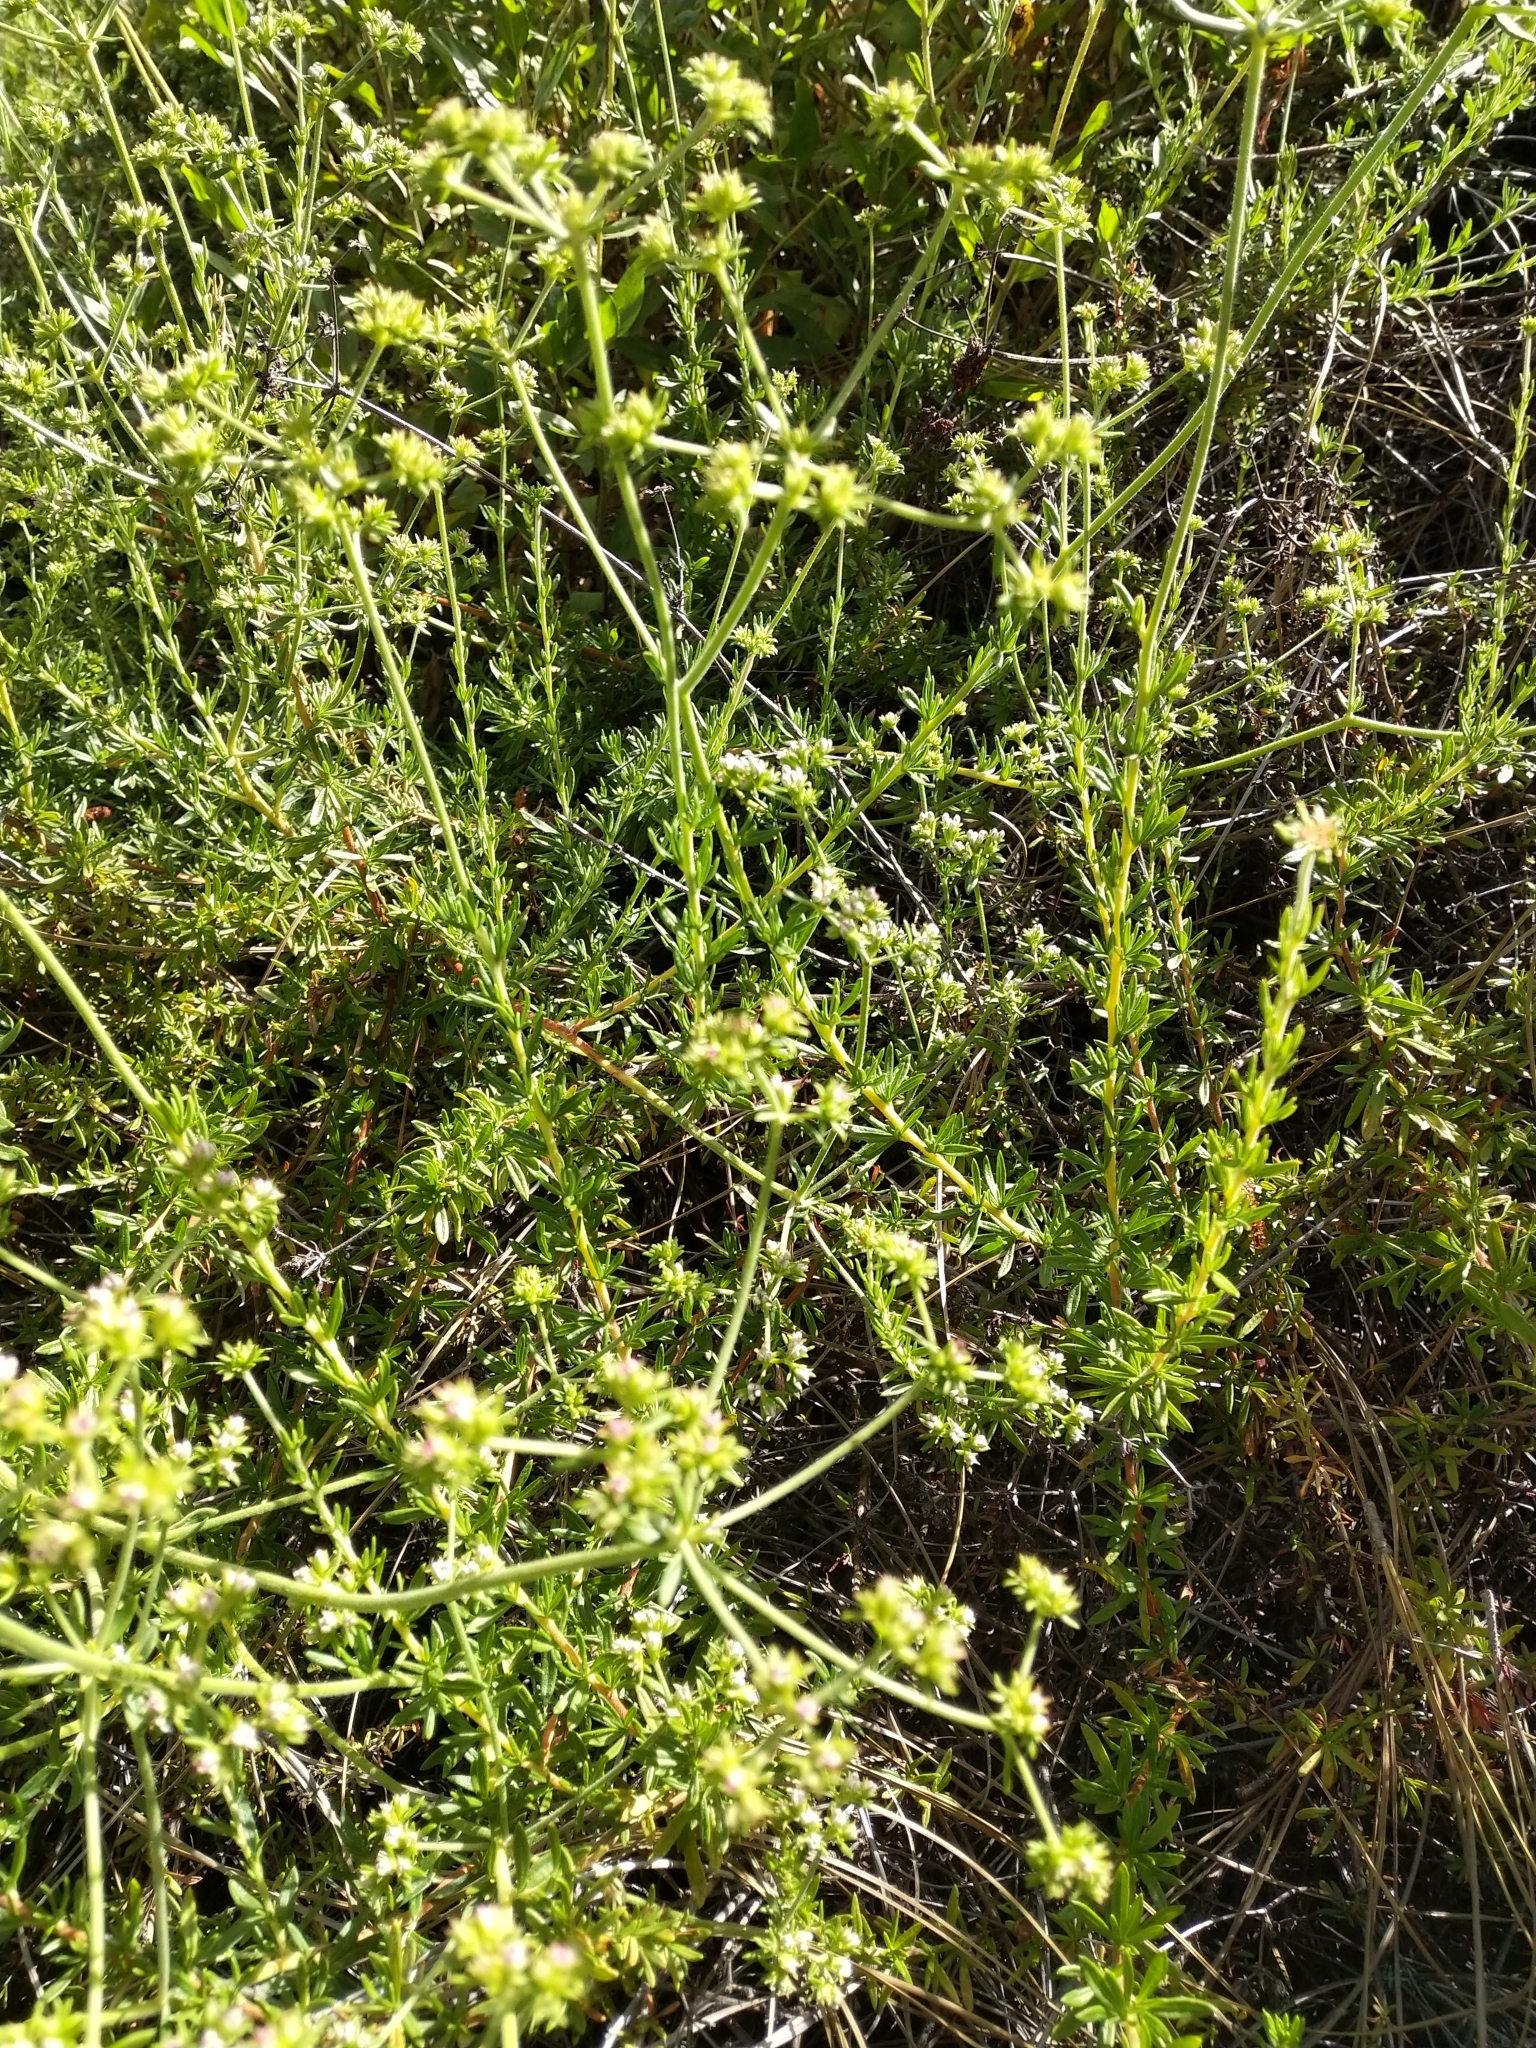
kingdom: Plantae
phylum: Tracheophyta
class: Magnoliopsida
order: Caryophyllales
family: Polygonaceae
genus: Eriogonum
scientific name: Eriogonum fasciculatum
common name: California wild buckwheat
